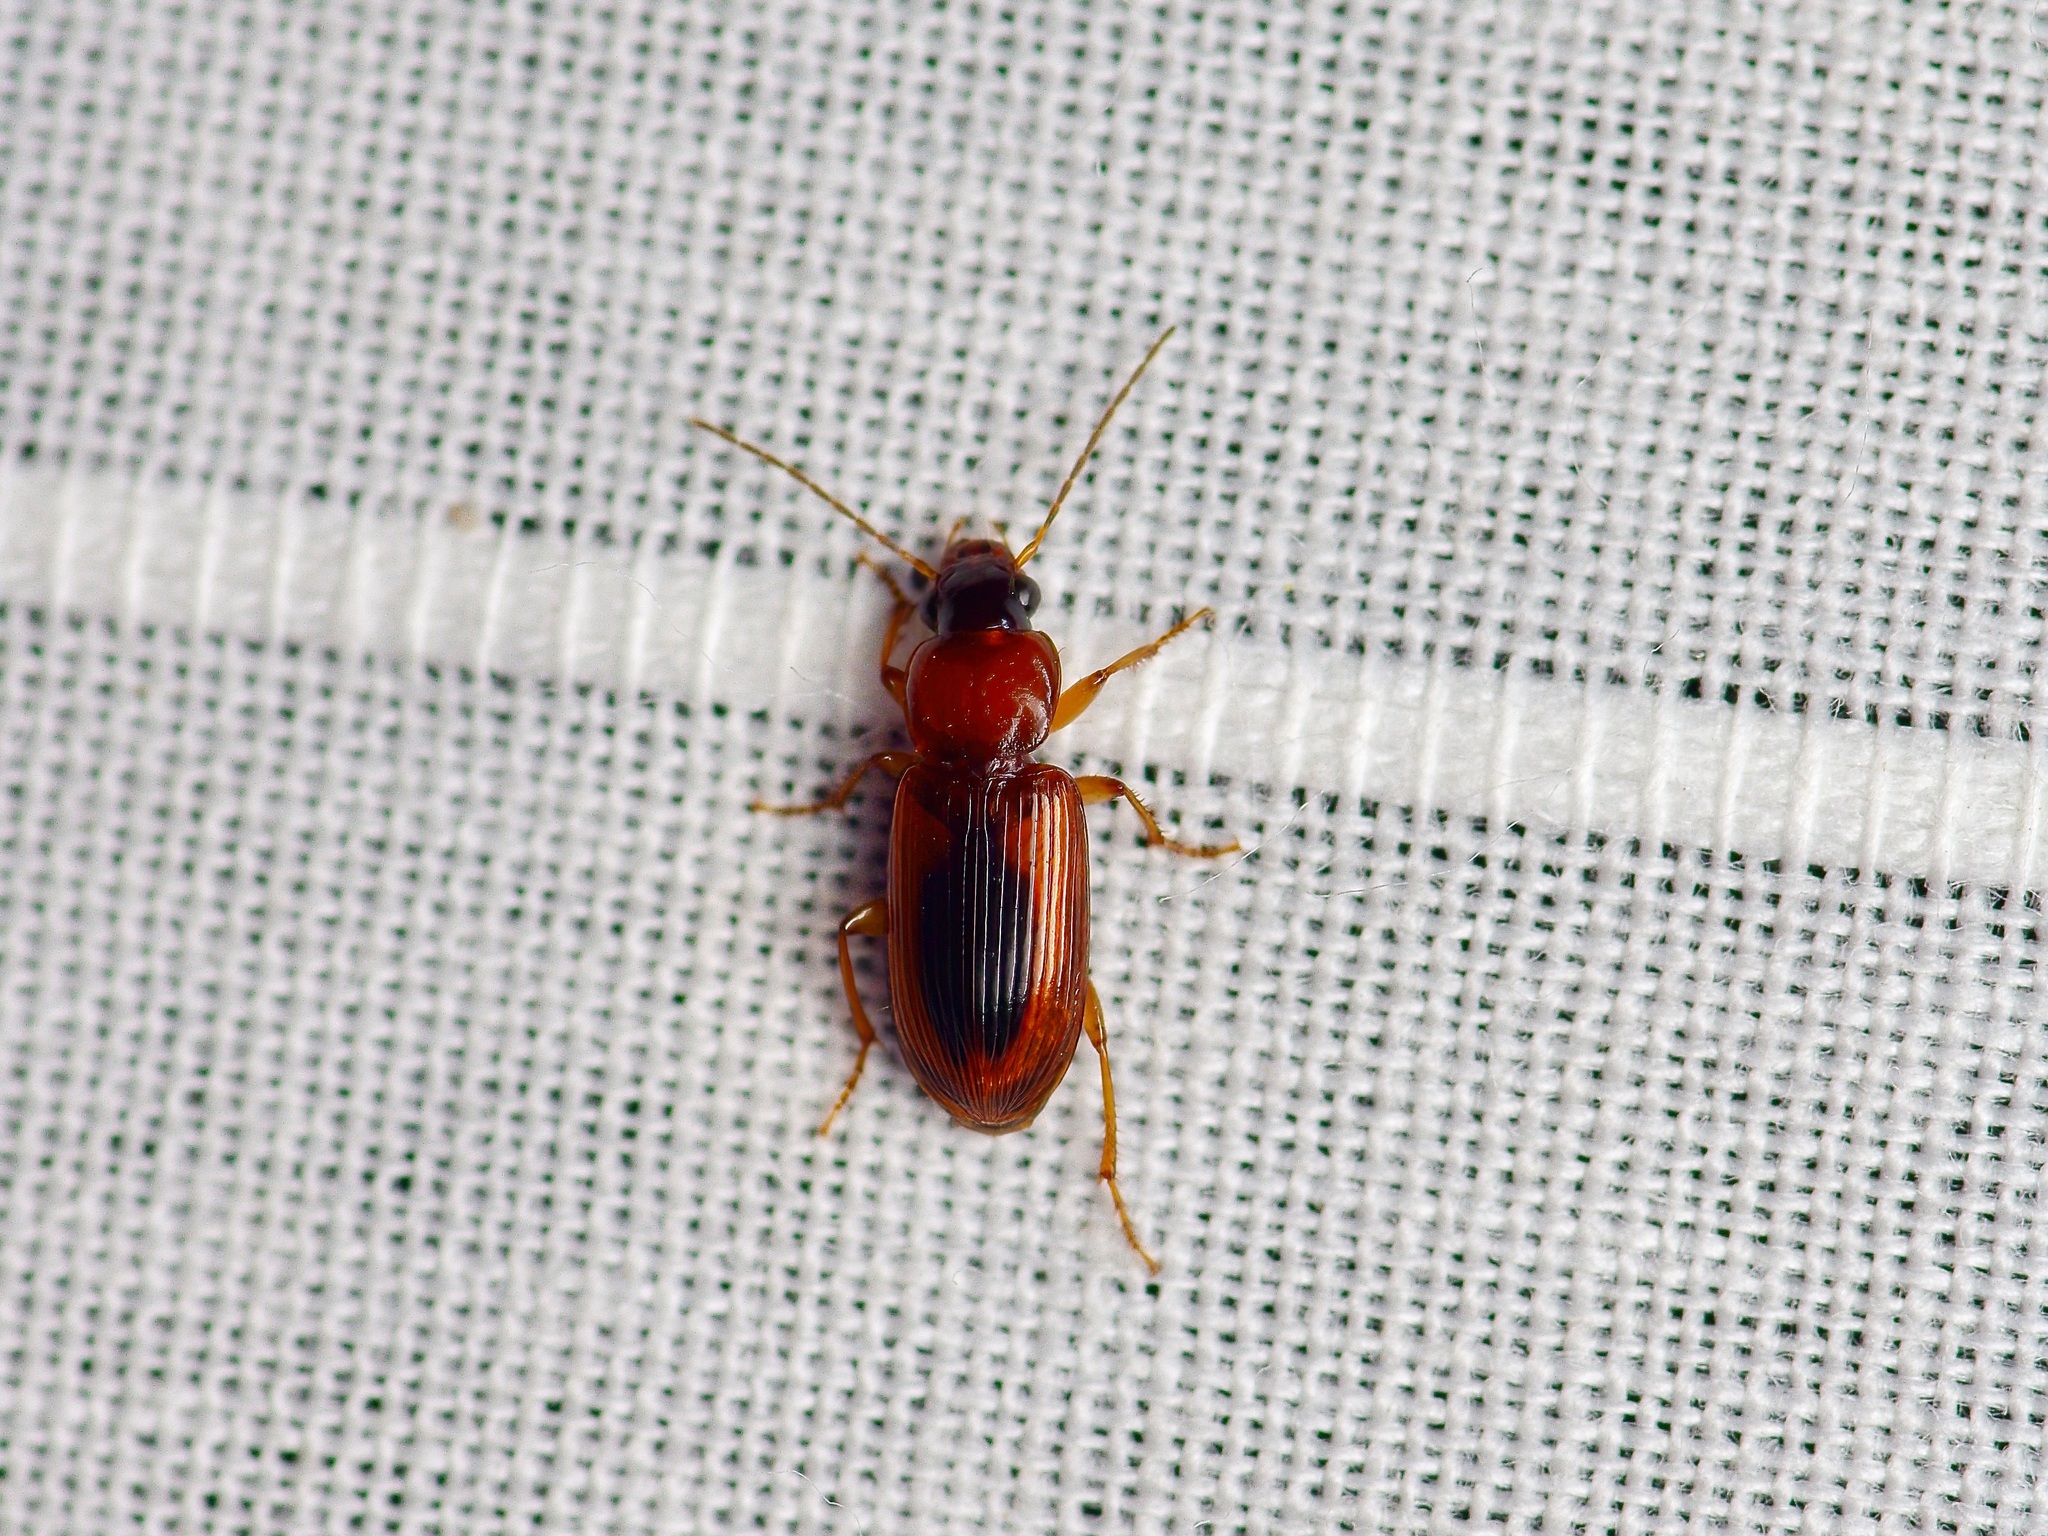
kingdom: Animalia
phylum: Arthropoda
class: Insecta
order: Coleoptera
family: Carabidae
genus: Stenolophus
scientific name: Stenolophus dissimilis
